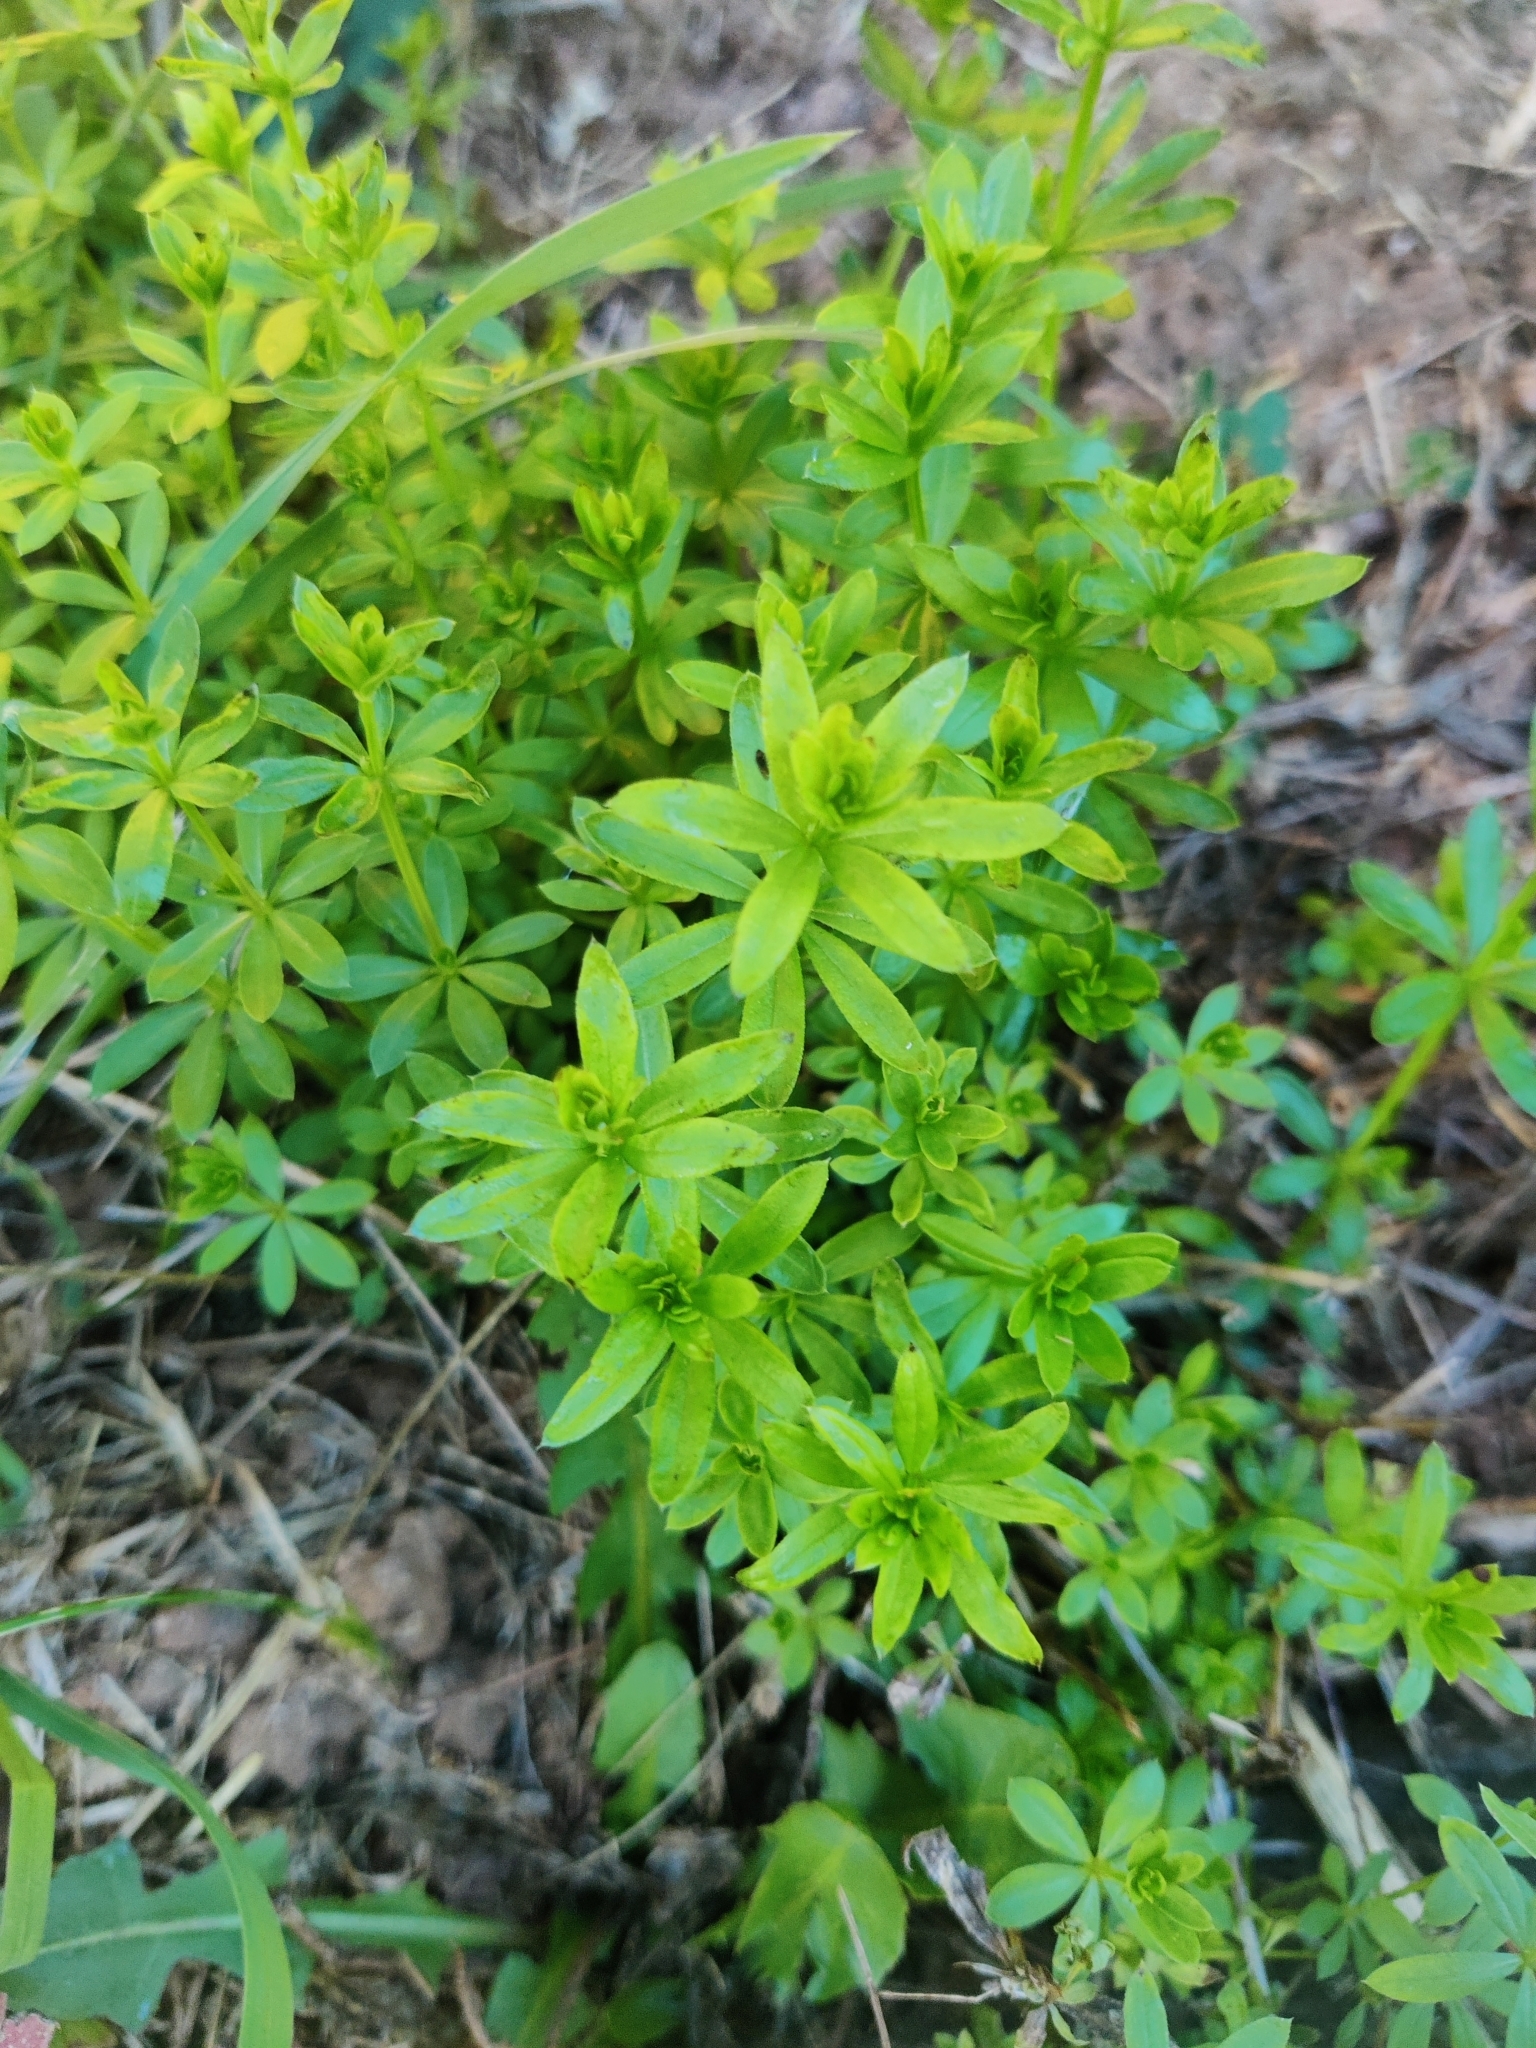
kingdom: Plantae
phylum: Tracheophyta
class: Magnoliopsida
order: Gentianales
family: Rubiaceae
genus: Galium
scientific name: Galium mollugo
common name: Hedge bedstraw
